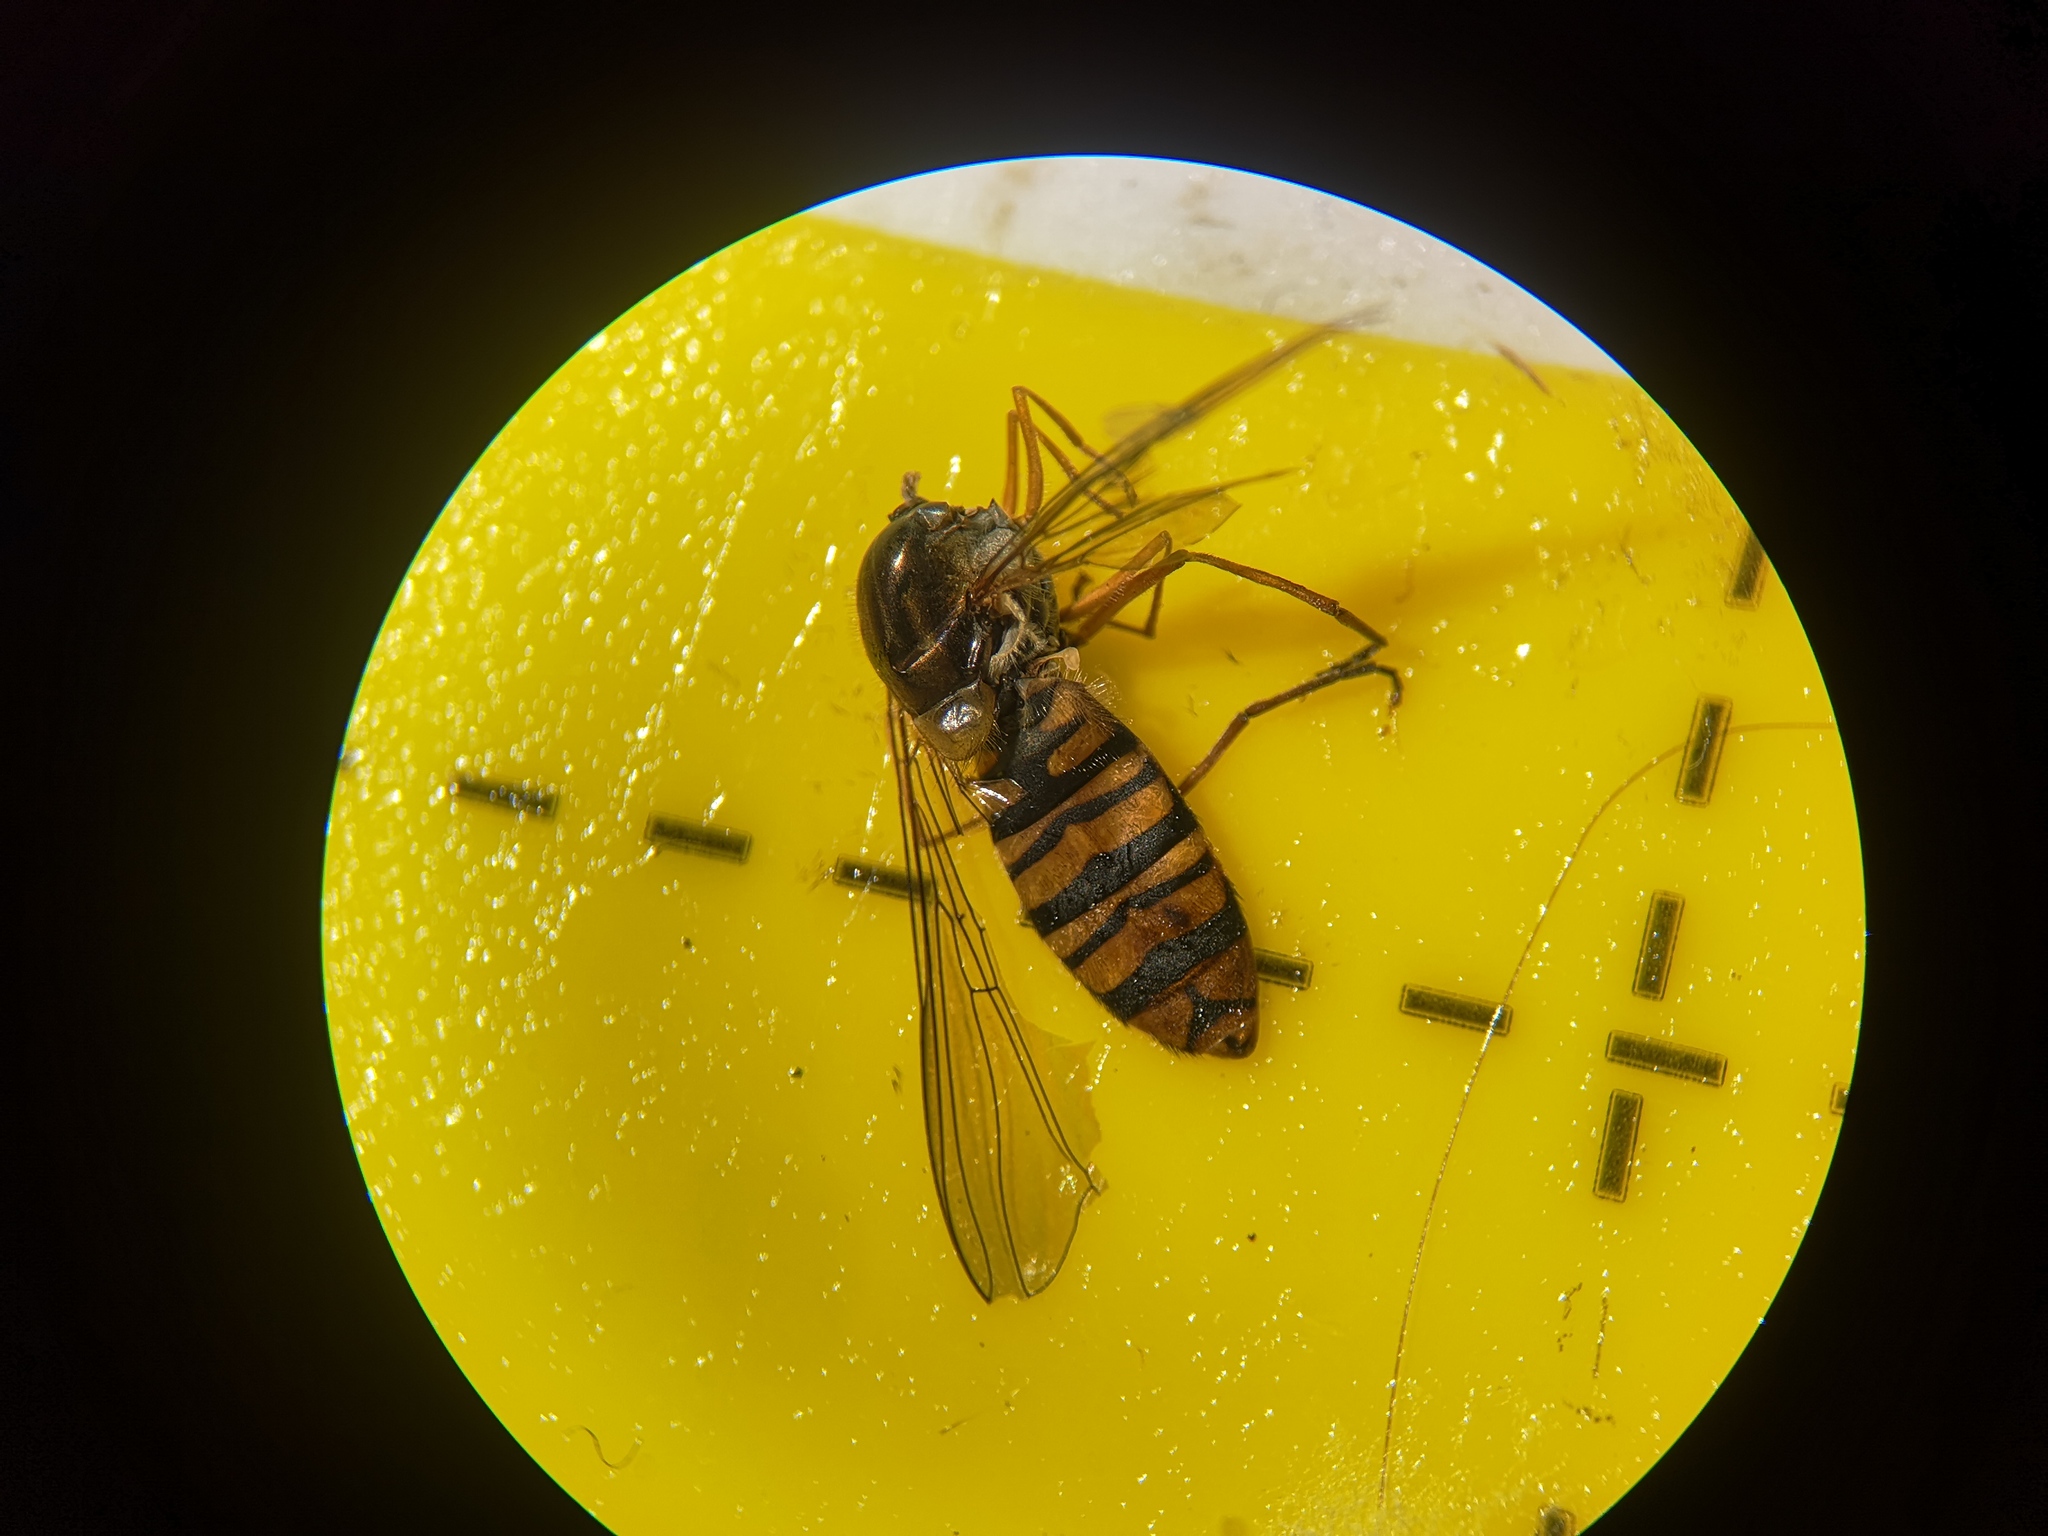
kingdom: Animalia
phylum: Arthropoda
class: Insecta
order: Diptera
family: Syrphidae
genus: Episyrphus
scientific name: Episyrphus balteatus
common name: Marmalade hoverfly
